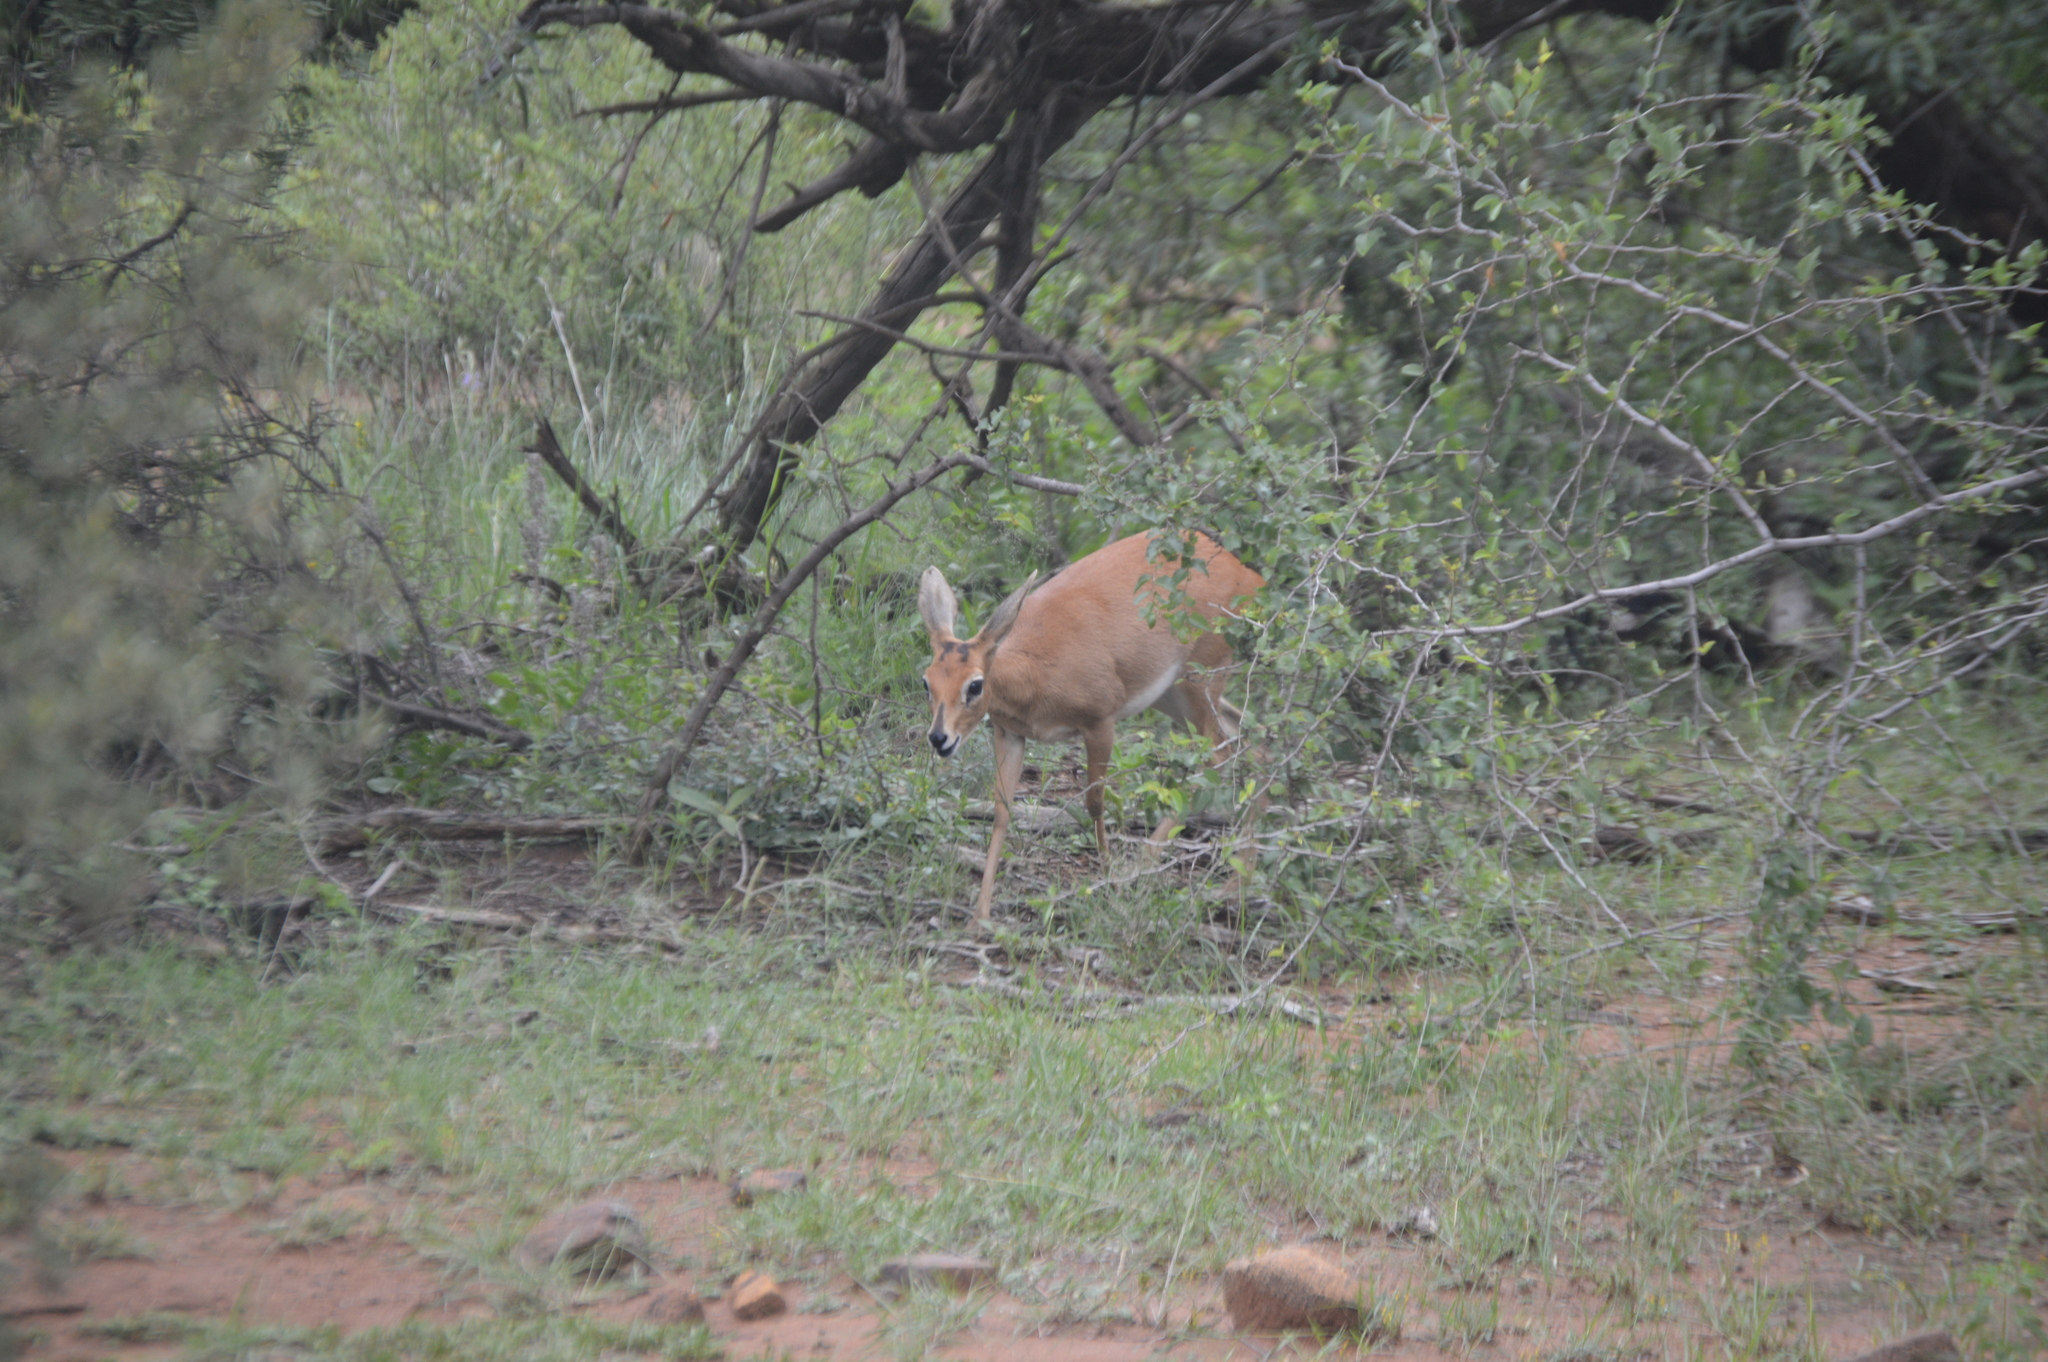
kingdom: Animalia
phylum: Chordata
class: Mammalia
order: Artiodactyla
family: Bovidae
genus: Raphicerus
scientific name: Raphicerus campestris
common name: Steenbok
